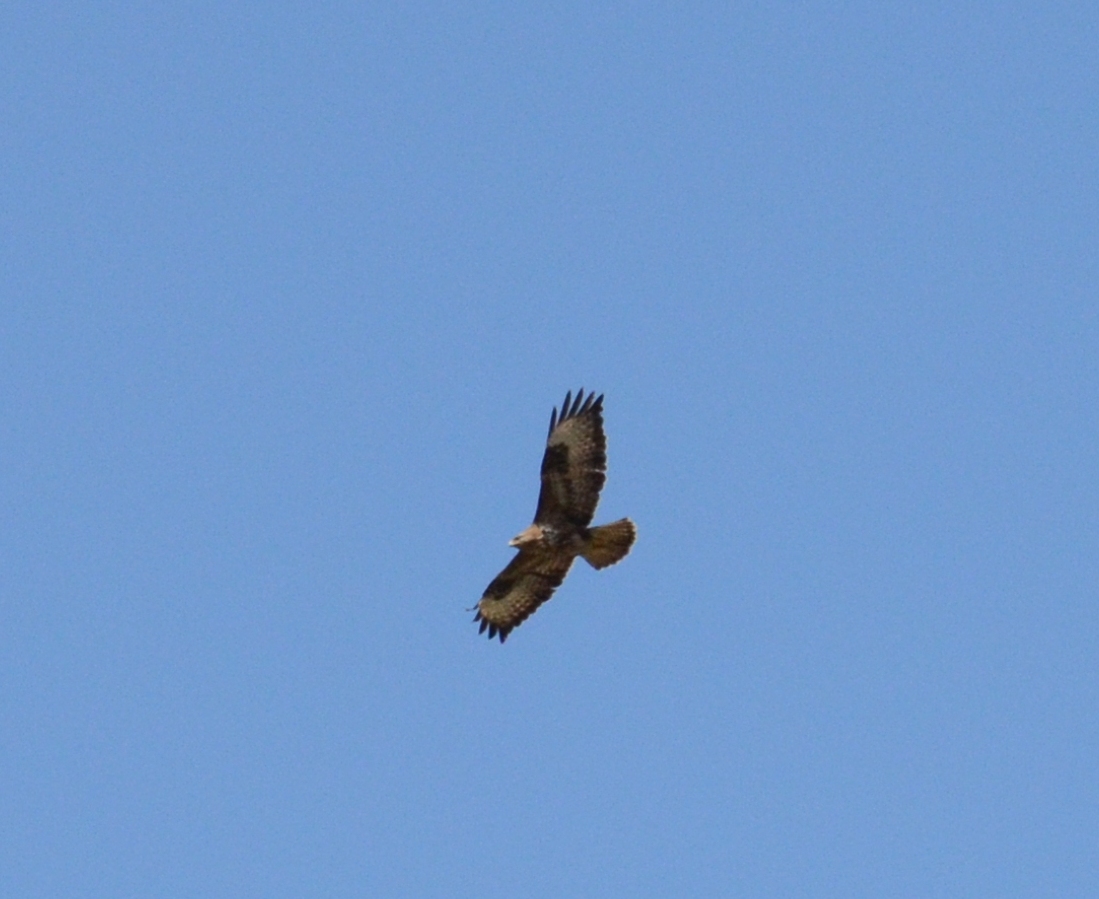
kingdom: Animalia
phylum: Chordata
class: Aves
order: Accipitriformes
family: Accipitridae
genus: Buteo
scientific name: Buteo buteo
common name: Common buzzard
